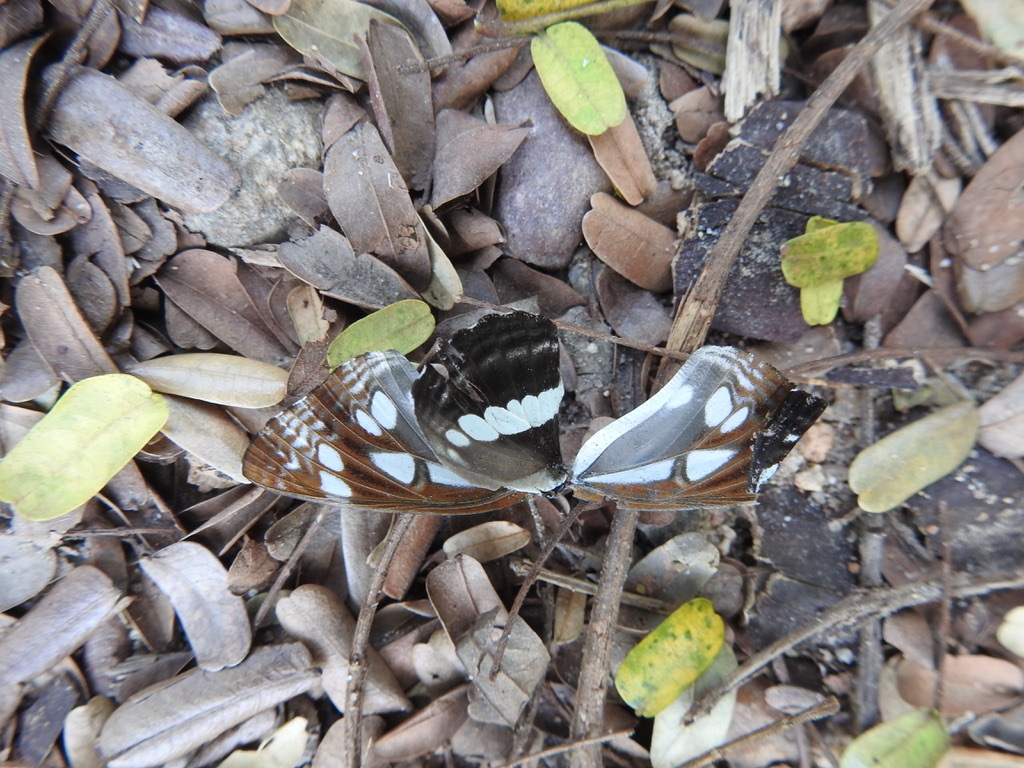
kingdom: Animalia
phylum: Arthropoda
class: Insecta
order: Lepidoptera
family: Nymphalidae
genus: Neptis
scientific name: Neptis jumbah
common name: Chestnut-streaked sailer
